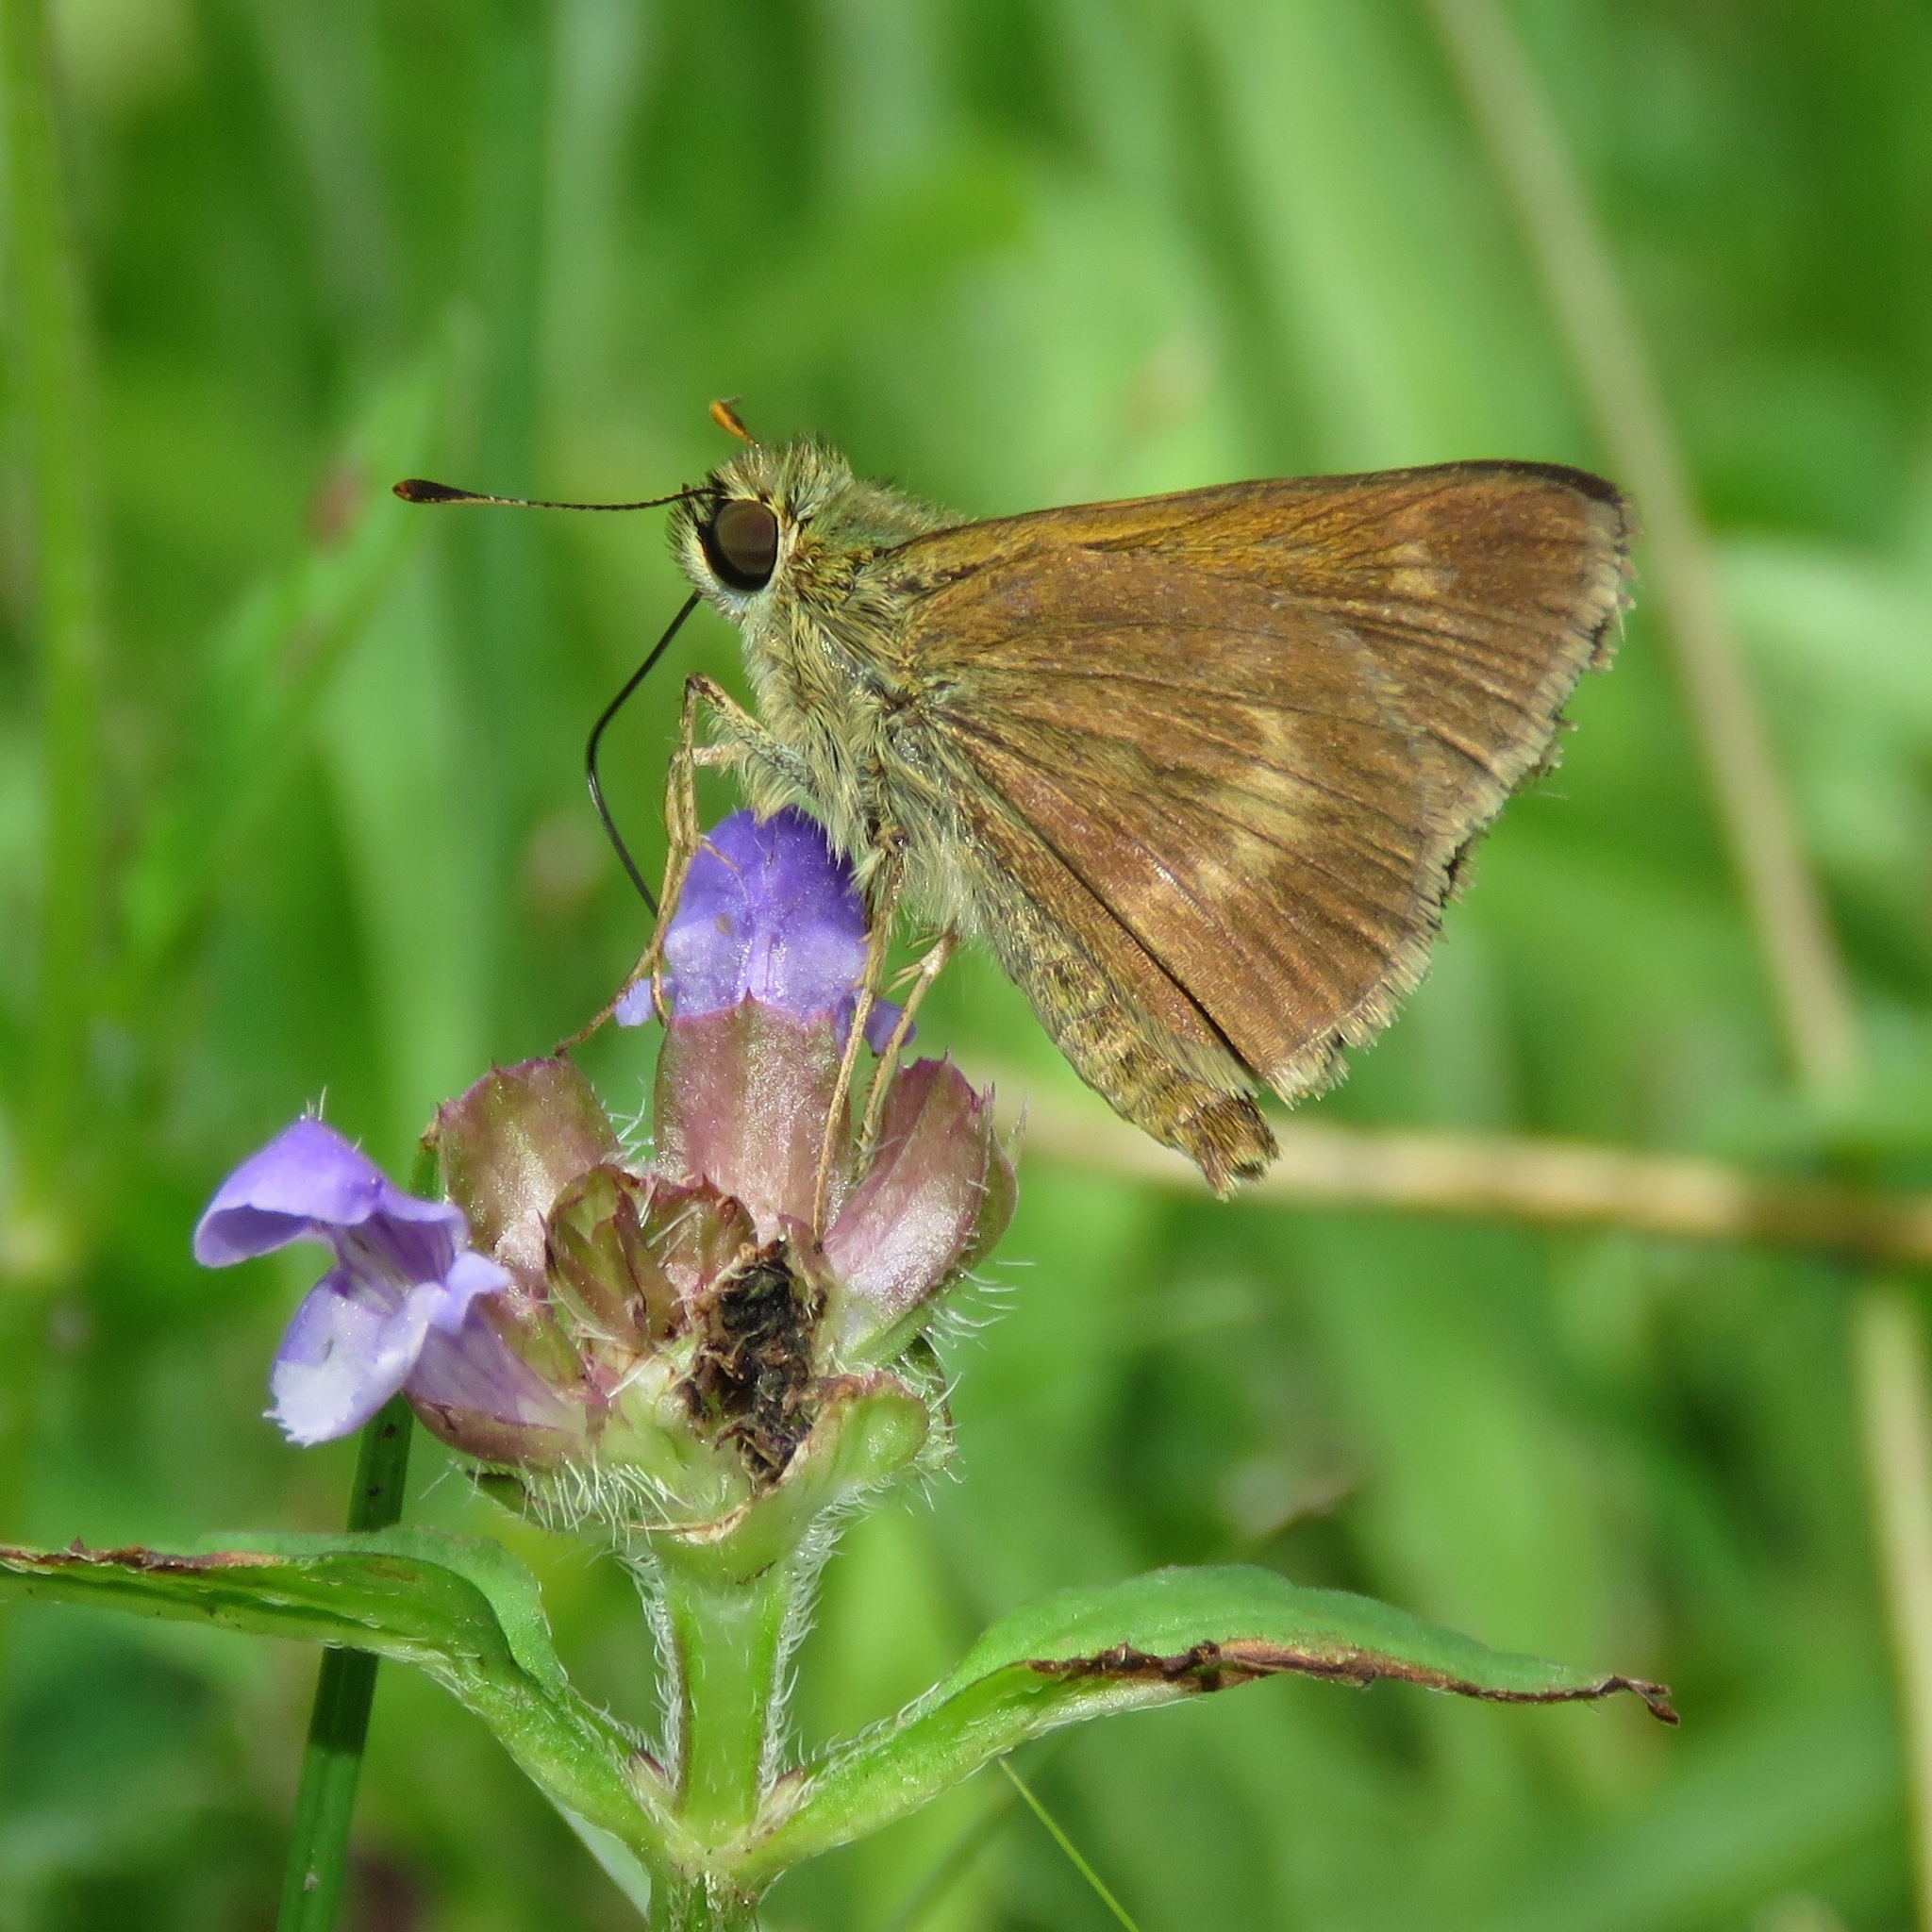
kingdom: Animalia
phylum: Arthropoda
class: Insecta
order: Lepidoptera
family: Hesperiidae
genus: Polites
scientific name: Polites egeremet
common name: Northern broken-dash
